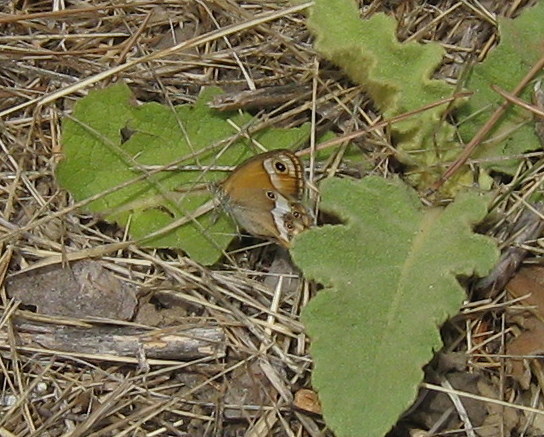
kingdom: Animalia
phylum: Arthropoda
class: Insecta
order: Lepidoptera
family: Nymphalidae
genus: Coenonympha
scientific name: Coenonympha dorus
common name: Dusky heath
